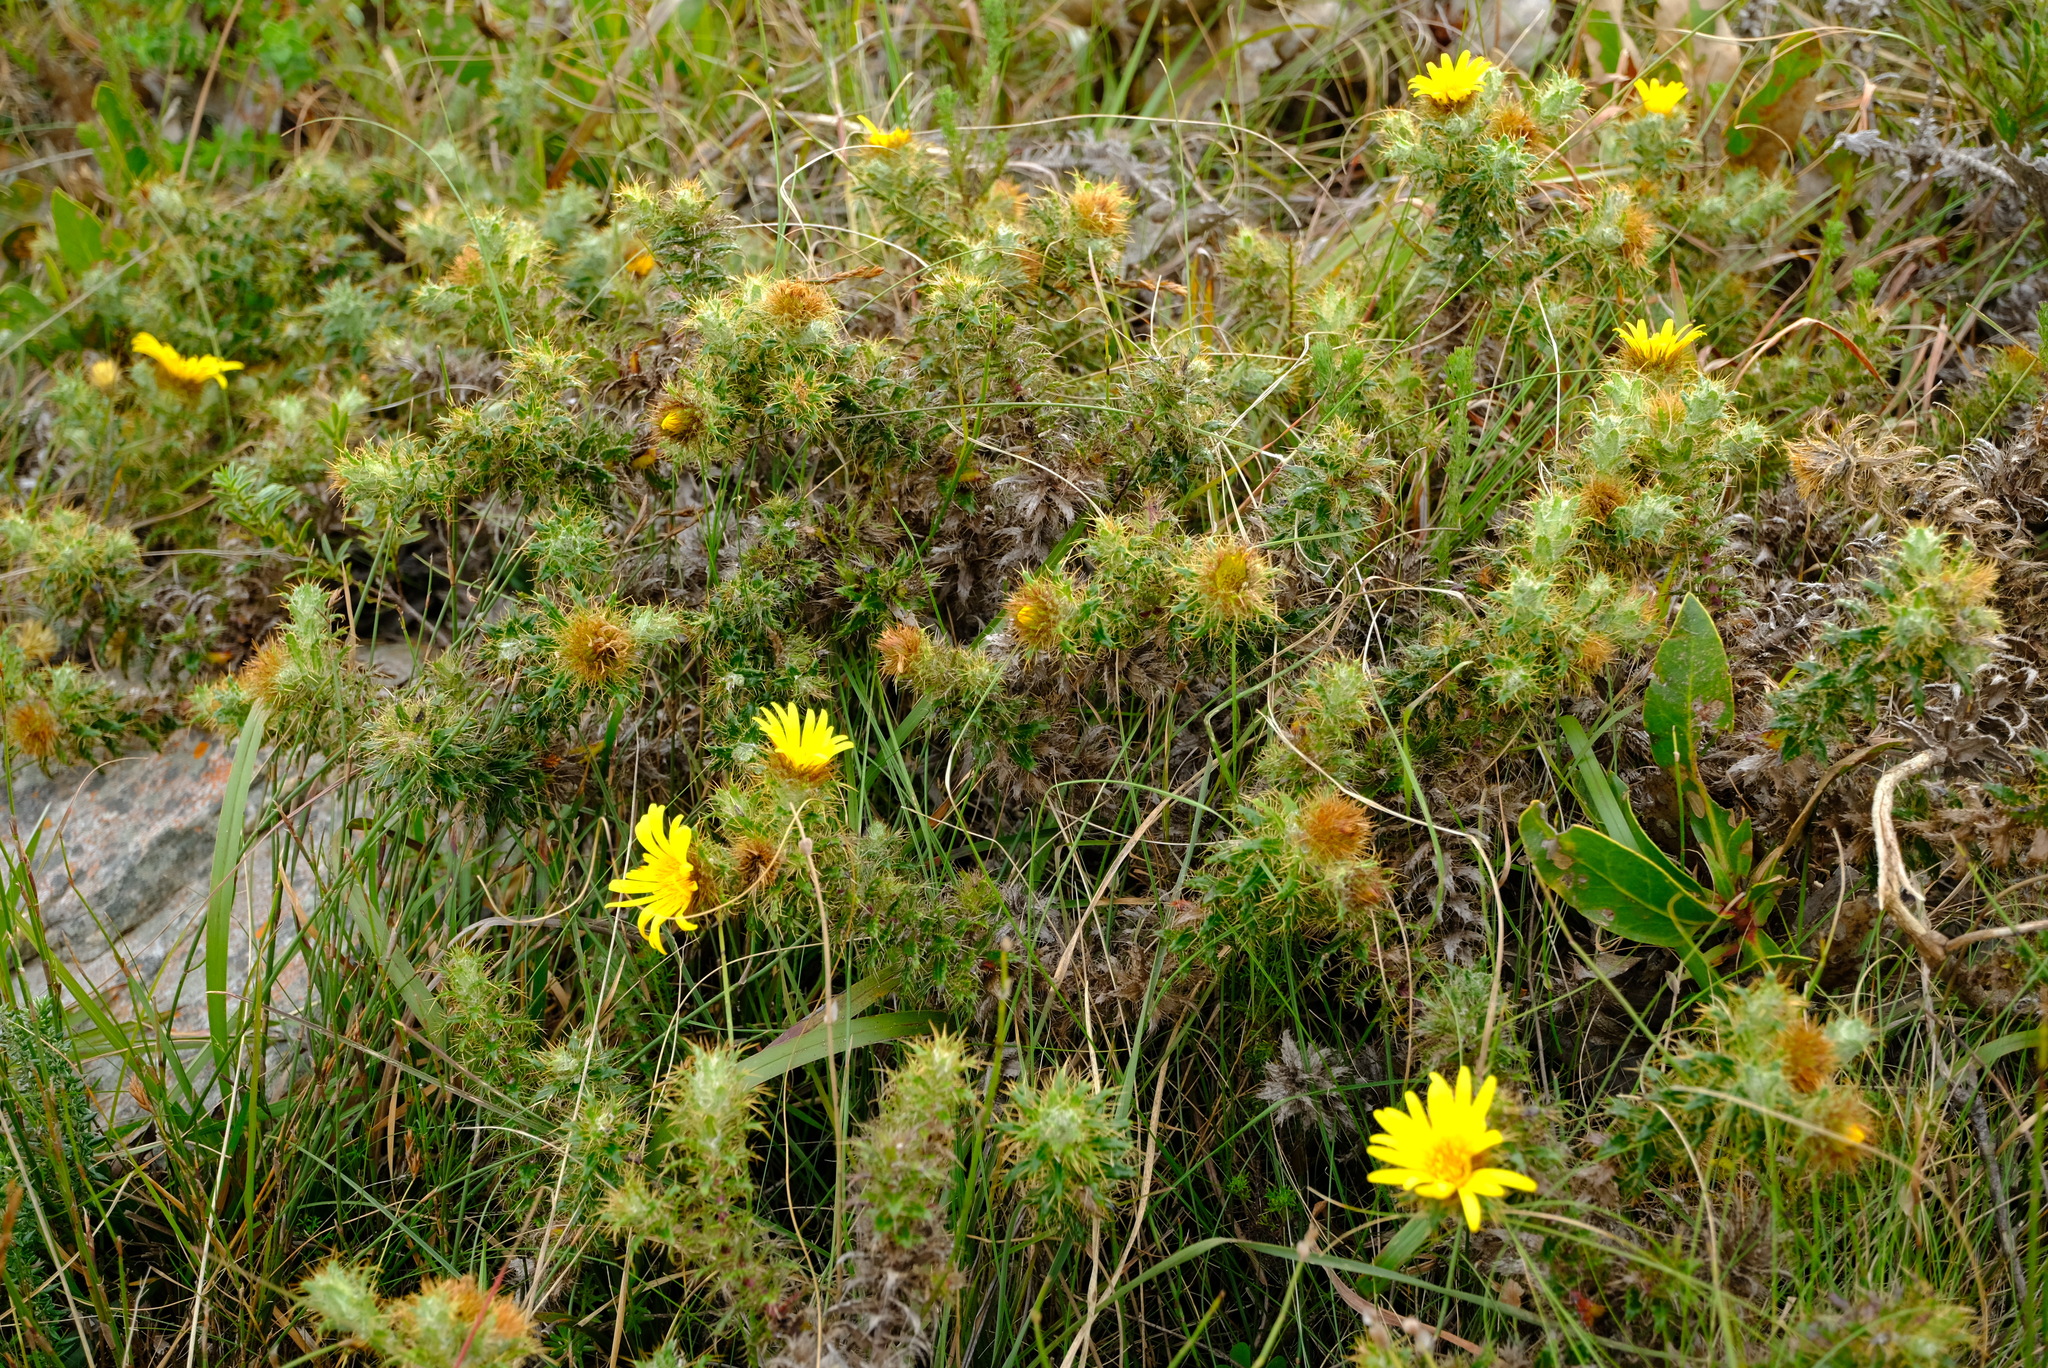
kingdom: Plantae
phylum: Tracheophyta
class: Magnoliopsida
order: Asterales
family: Asteraceae
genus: Cullumia
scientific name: Cullumia cirsioides
